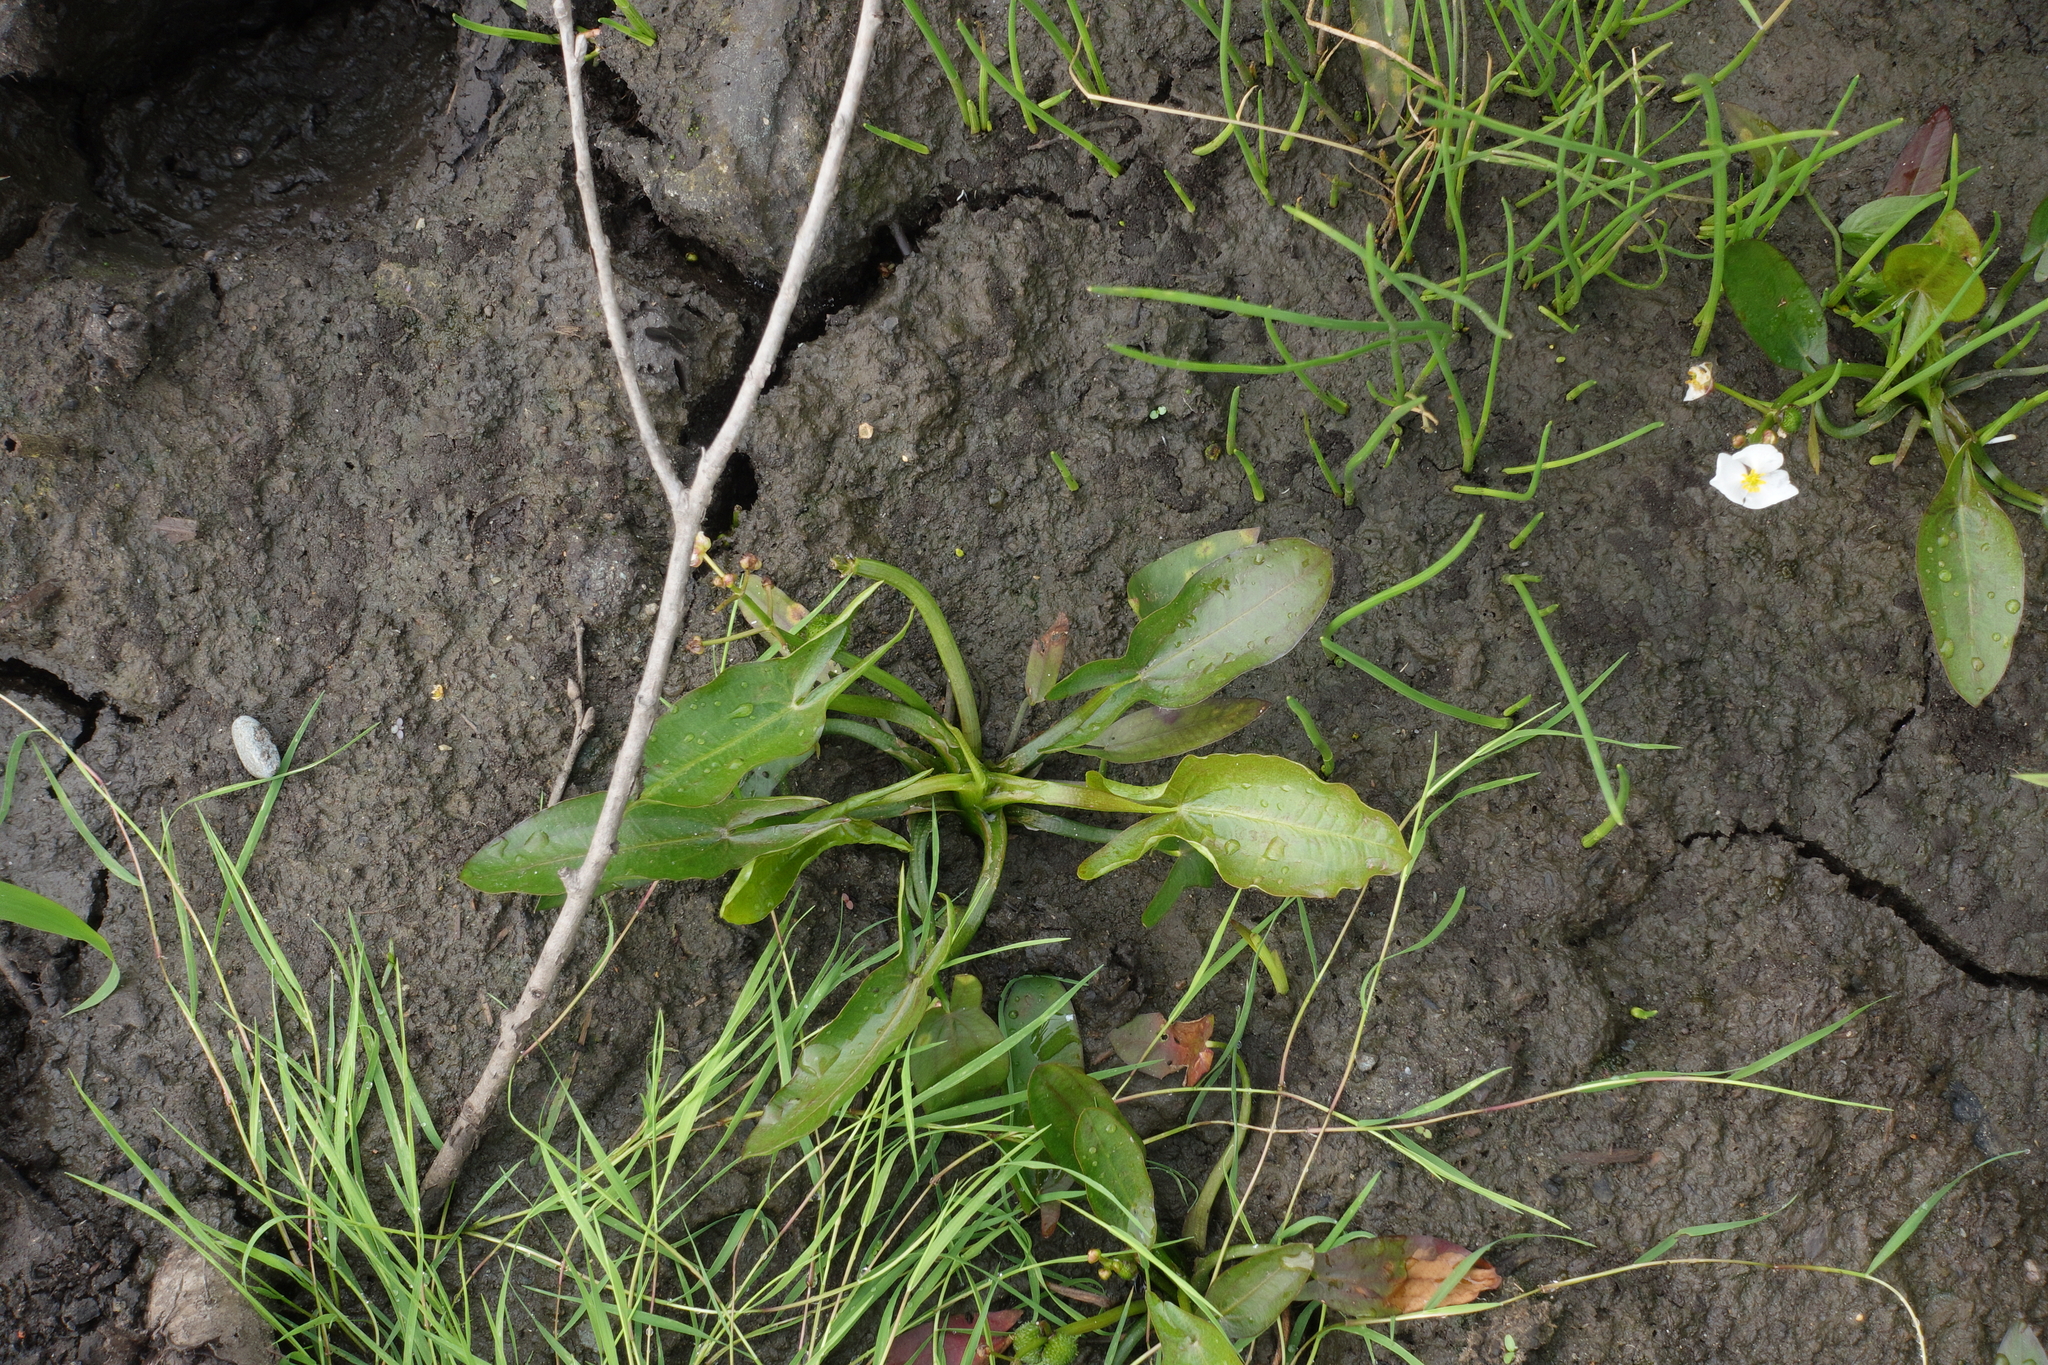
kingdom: Plantae
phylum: Tracheophyta
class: Liliopsida
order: Alismatales
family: Alismataceae
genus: Sagittaria
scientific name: Sagittaria natans
